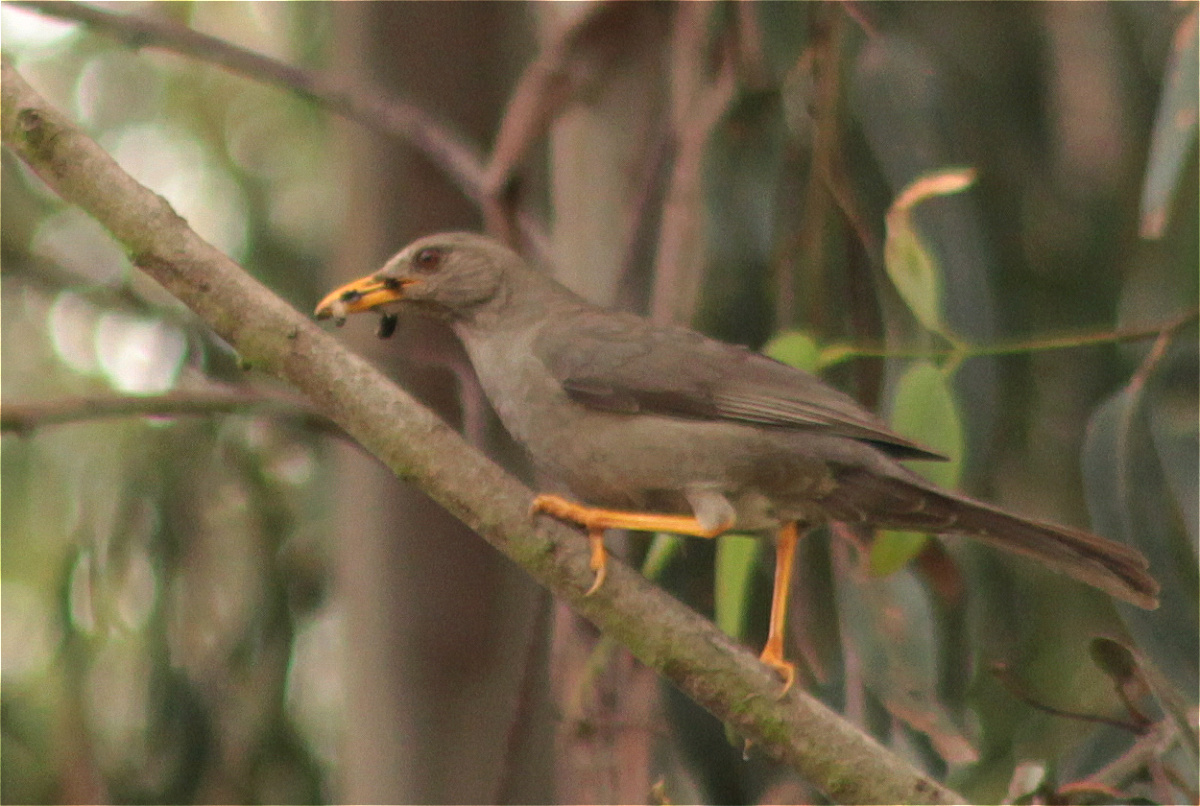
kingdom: Animalia
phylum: Chordata
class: Aves
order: Passeriformes
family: Turdidae
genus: Turdus
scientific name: Turdus chiguanco
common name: Chiguanco thrush
